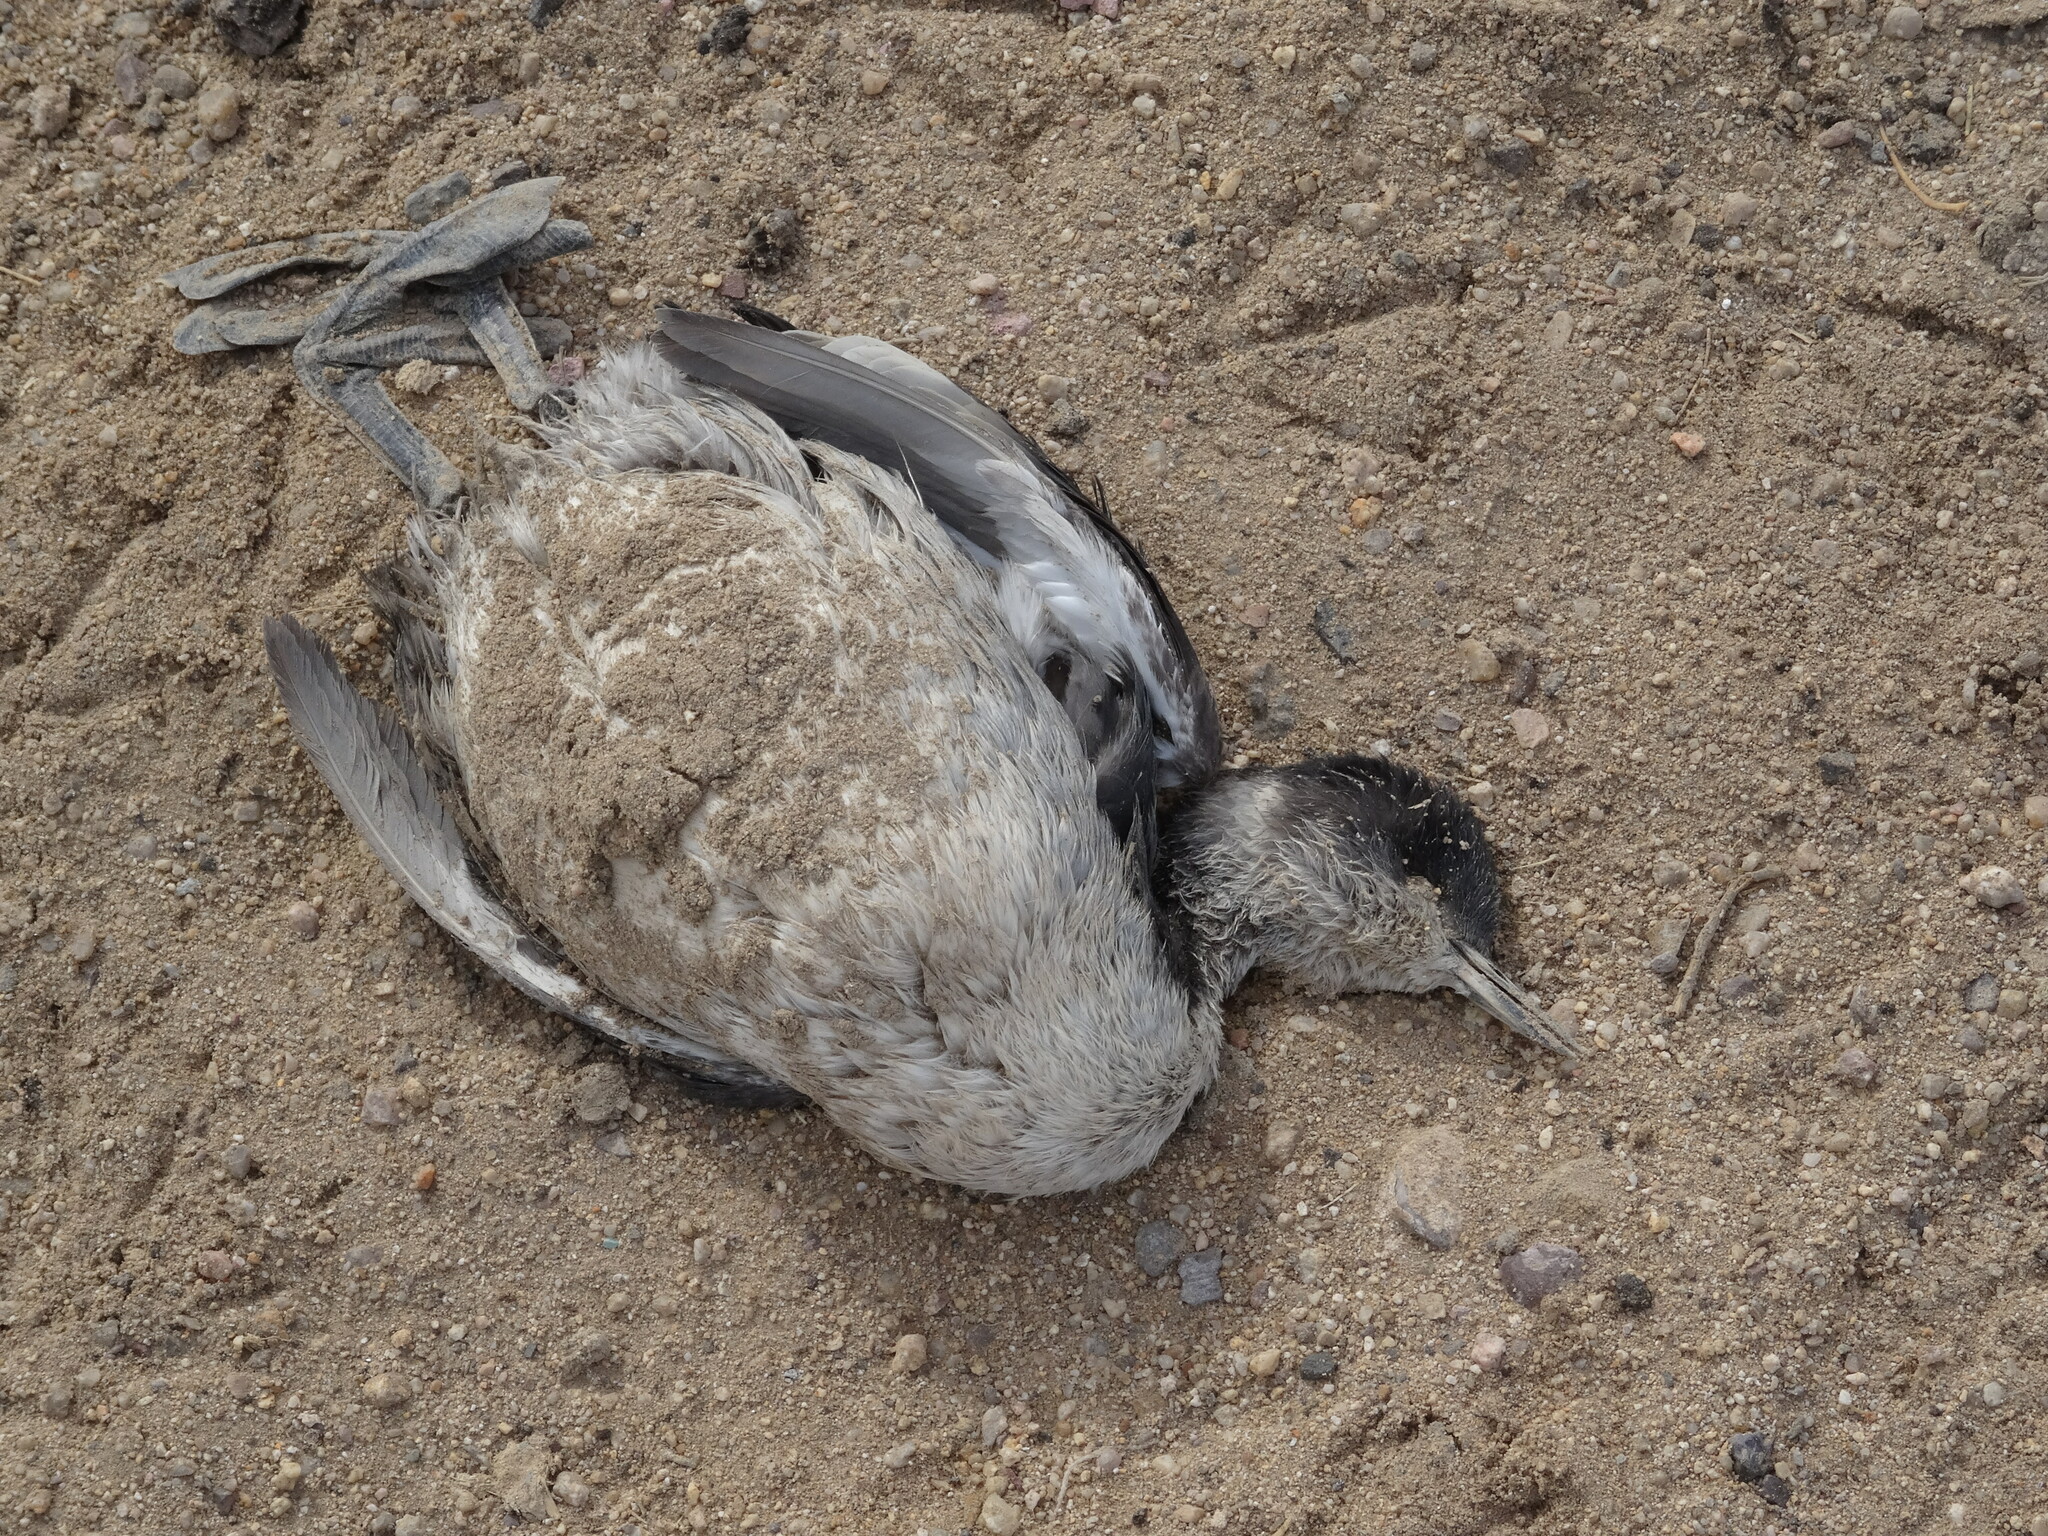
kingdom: Animalia
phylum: Chordata
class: Aves
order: Podicipediformes
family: Podicipedidae
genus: Podiceps
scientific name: Podiceps nigricollis
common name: Black-necked grebe
